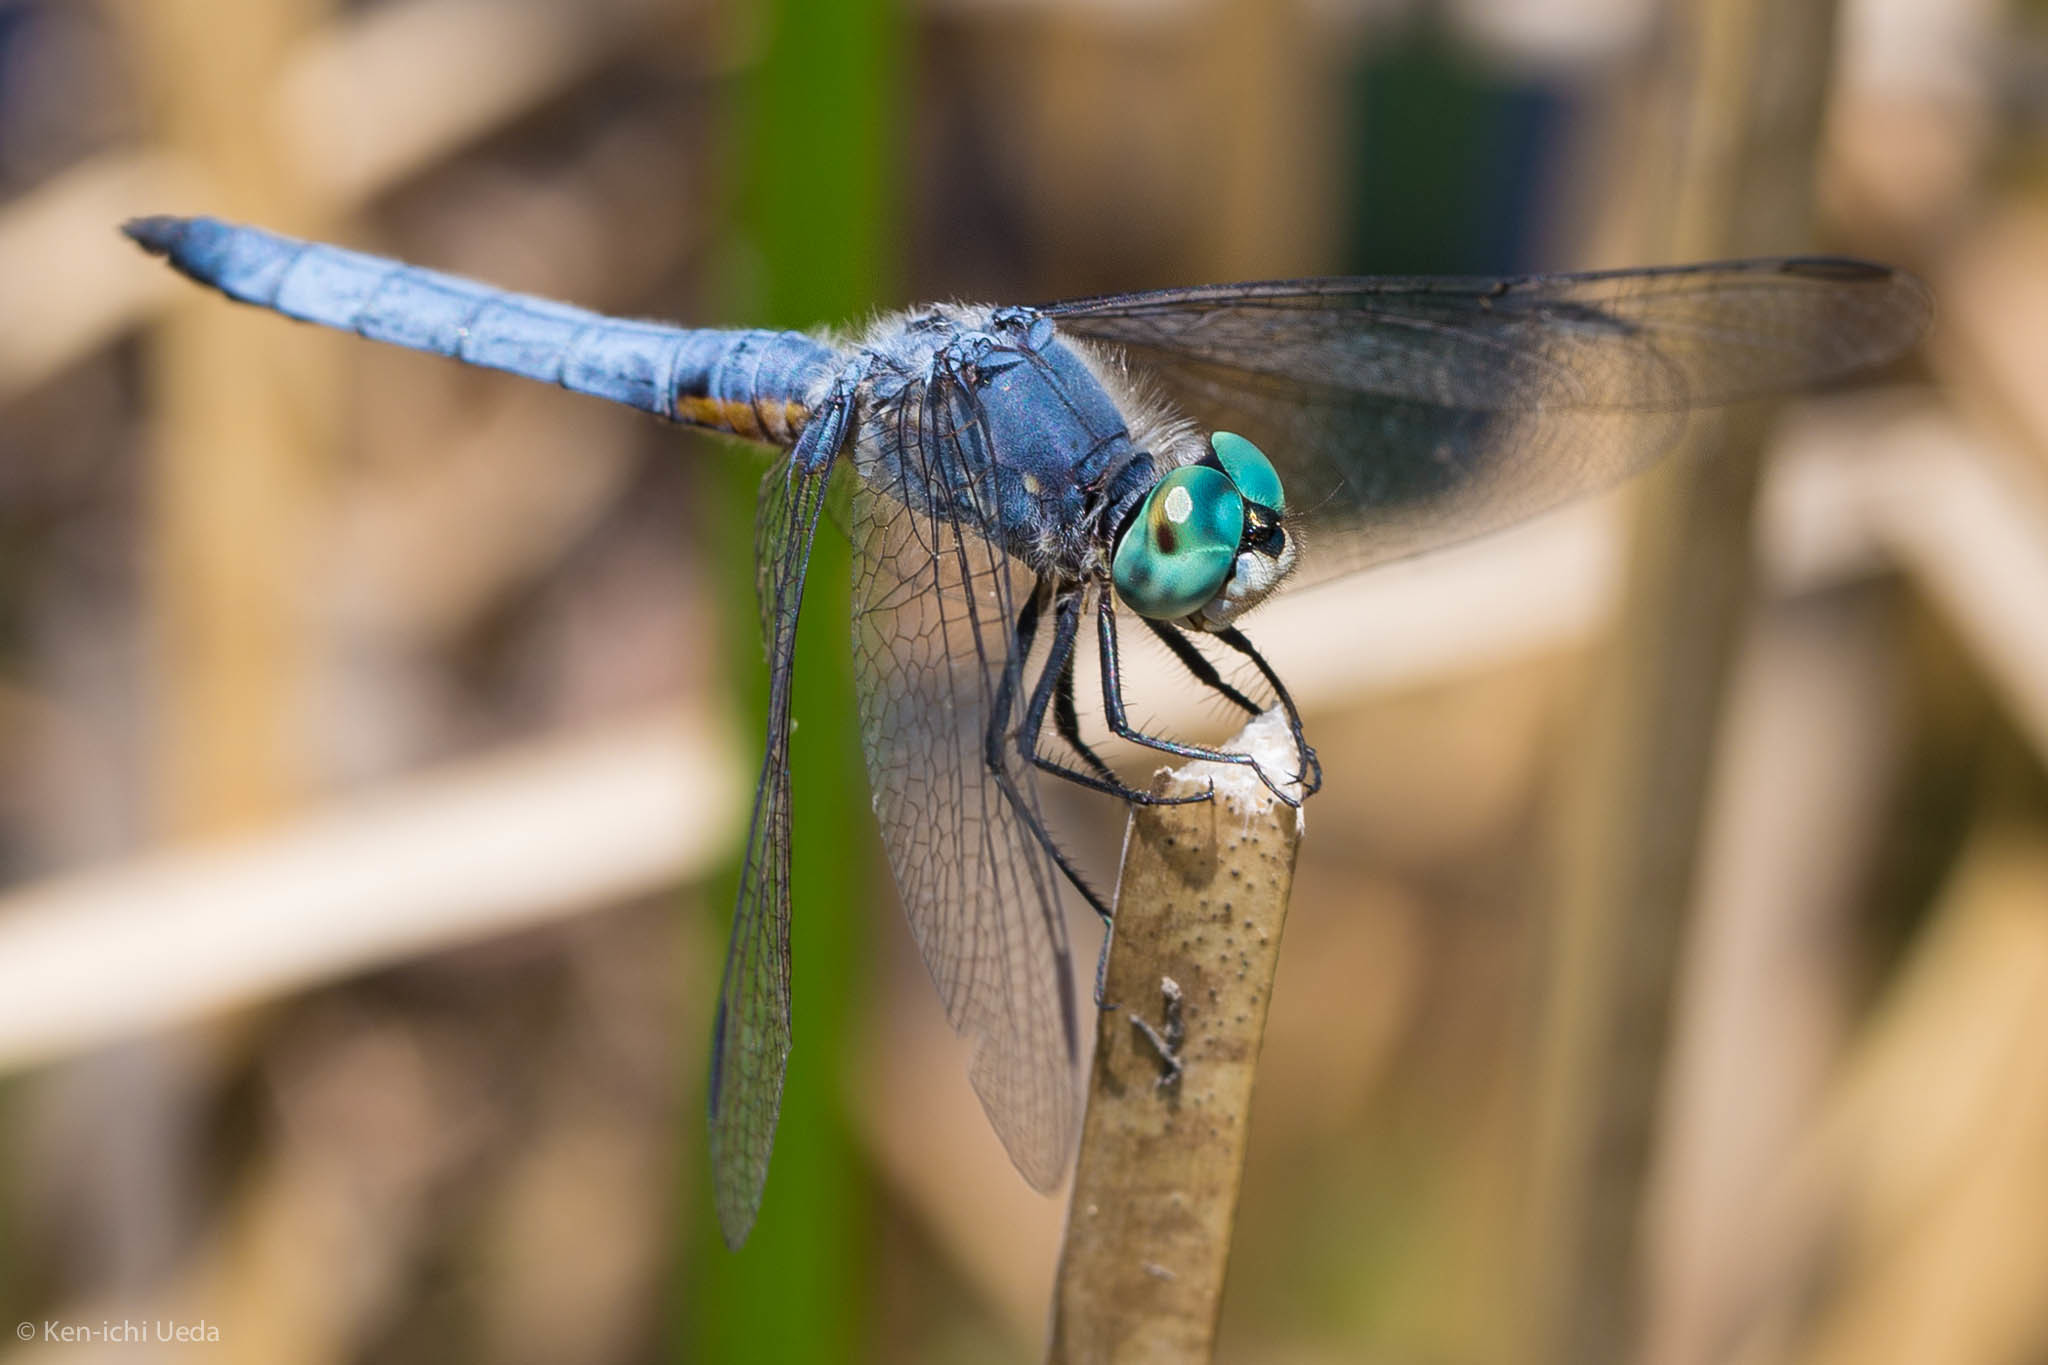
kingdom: Animalia
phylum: Arthropoda
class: Insecta
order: Odonata
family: Libellulidae
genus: Pachydiplax
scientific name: Pachydiplax longipennis
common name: Blue dasher
